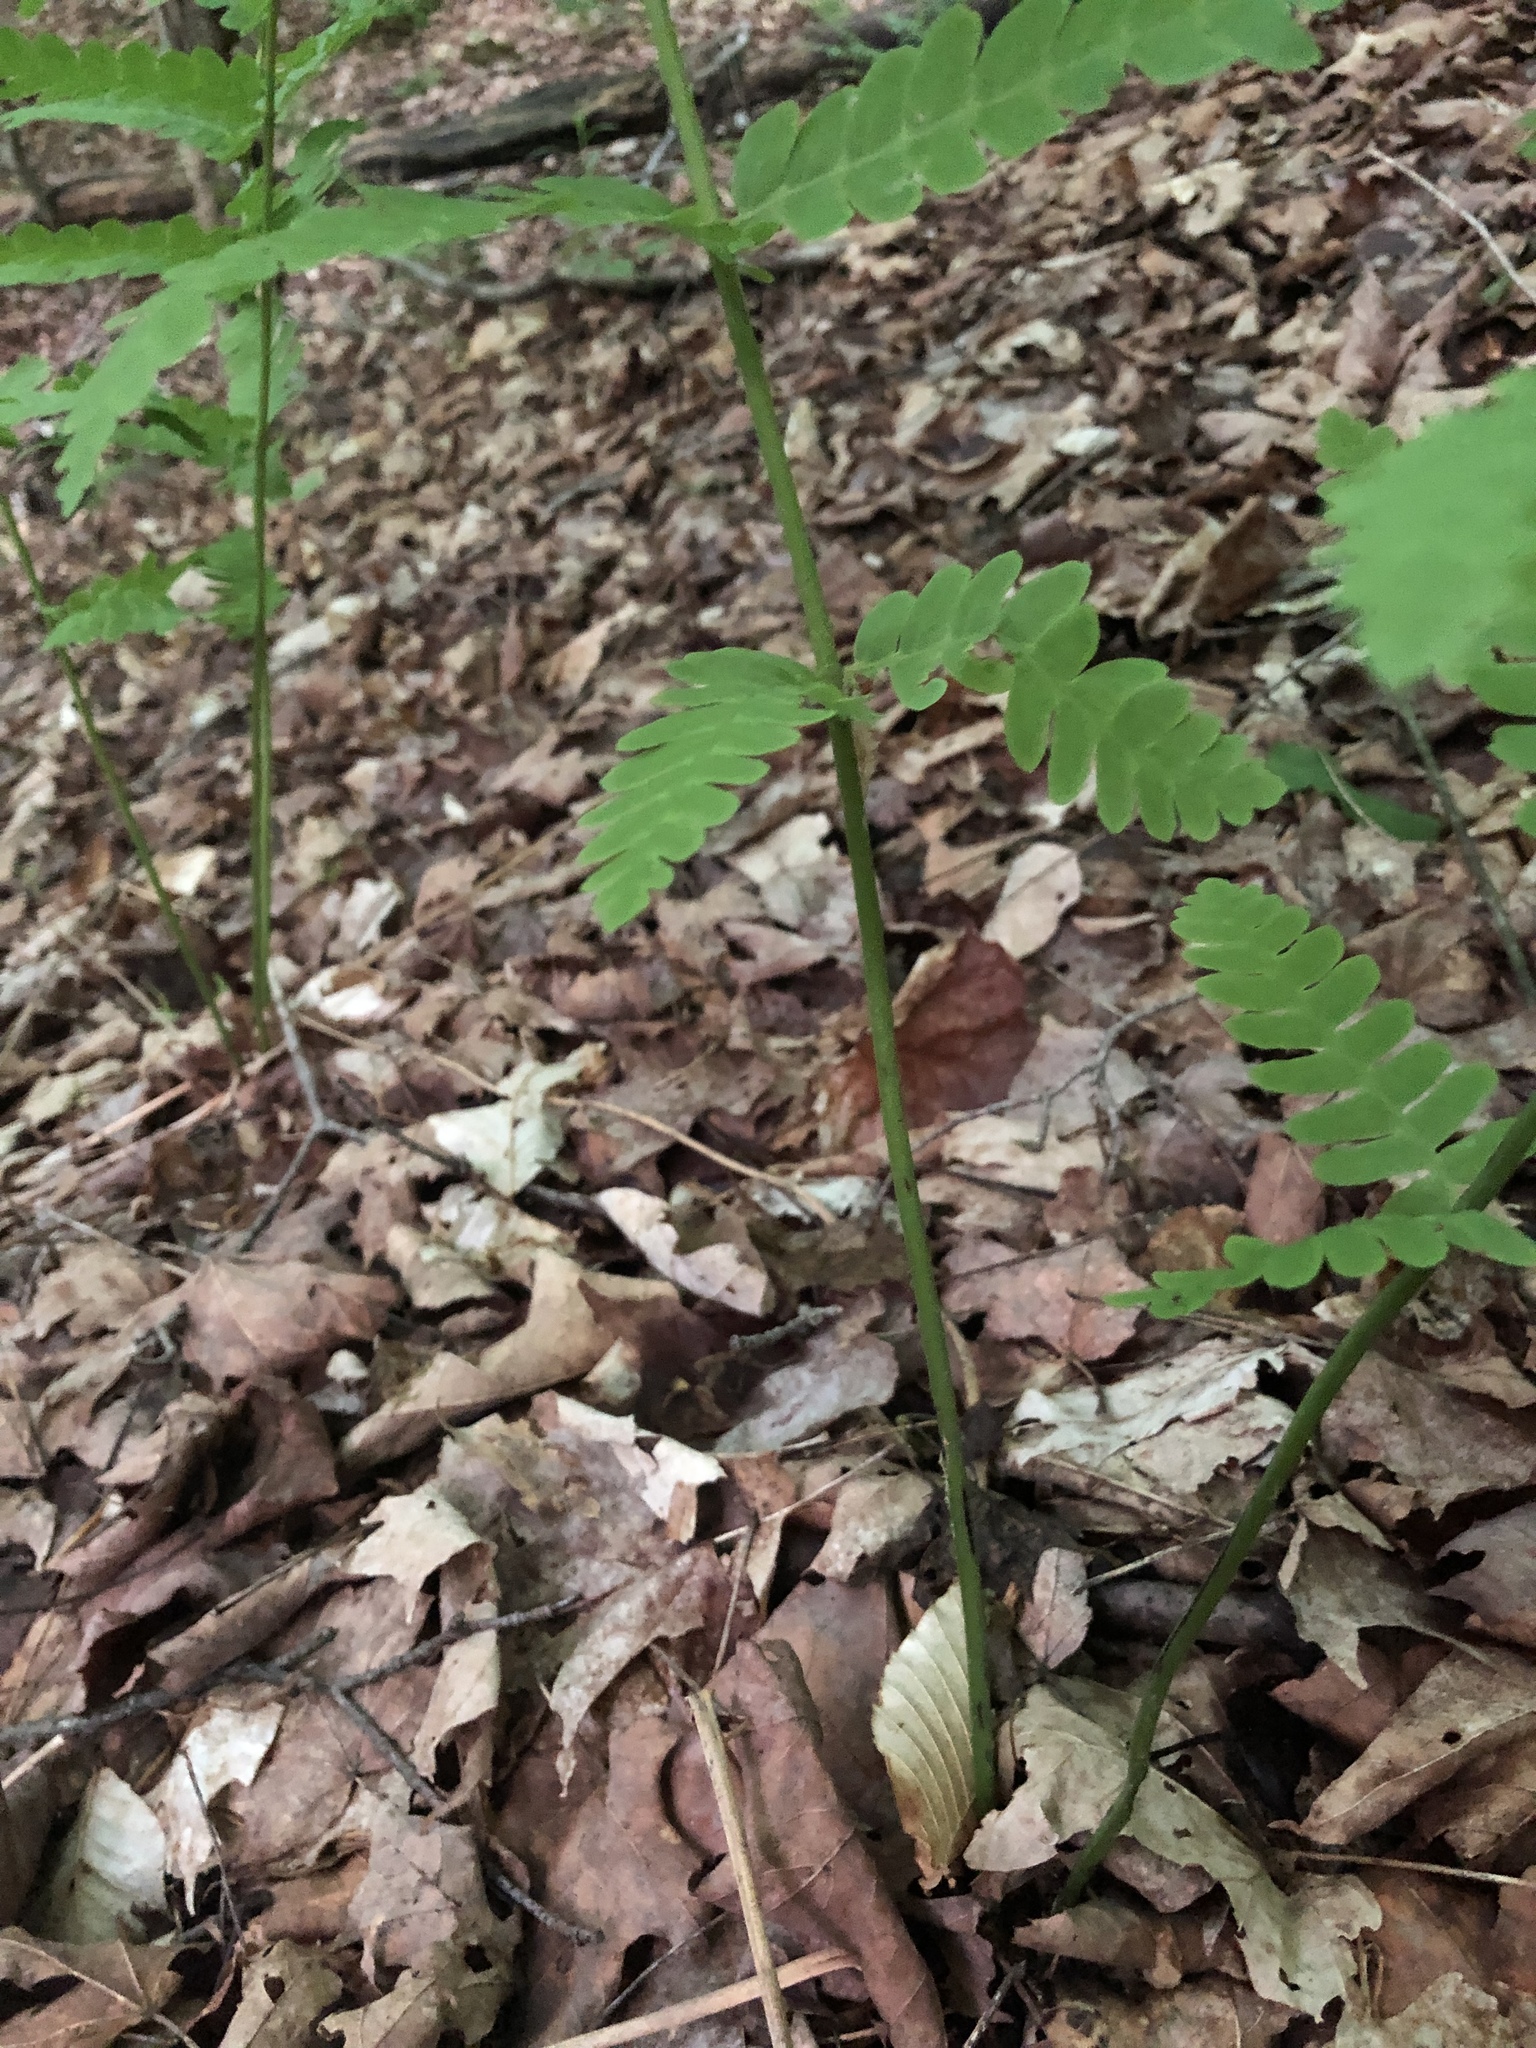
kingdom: Plantae
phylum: Tracheophyta
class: Polypodiopsida
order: Osmundales
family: Osmundaceae
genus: Claytosmunda
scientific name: Claytosmunda claytoniana
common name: Clayton's fern
